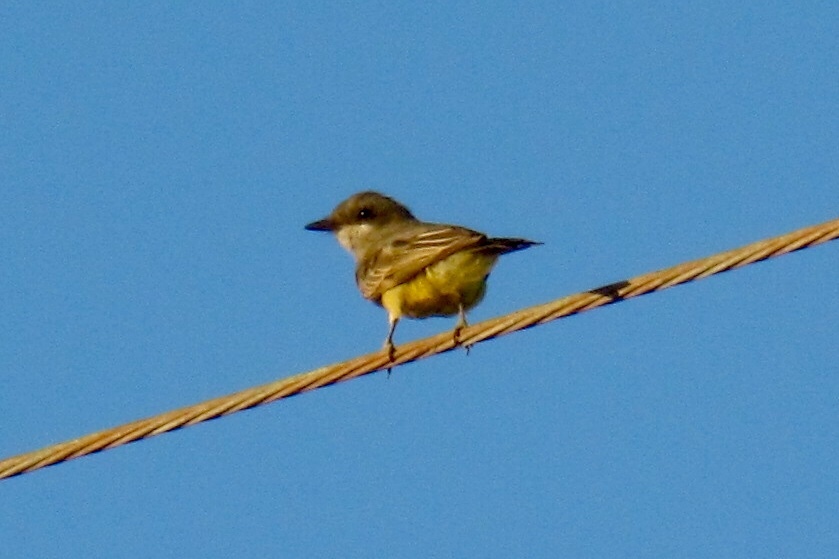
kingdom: Animalia
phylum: Chordata
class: Aves
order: Passeriformes
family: Tyrannidae
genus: Tyrannus
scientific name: Tyrannus vociferans
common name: Cassin's kingbird
